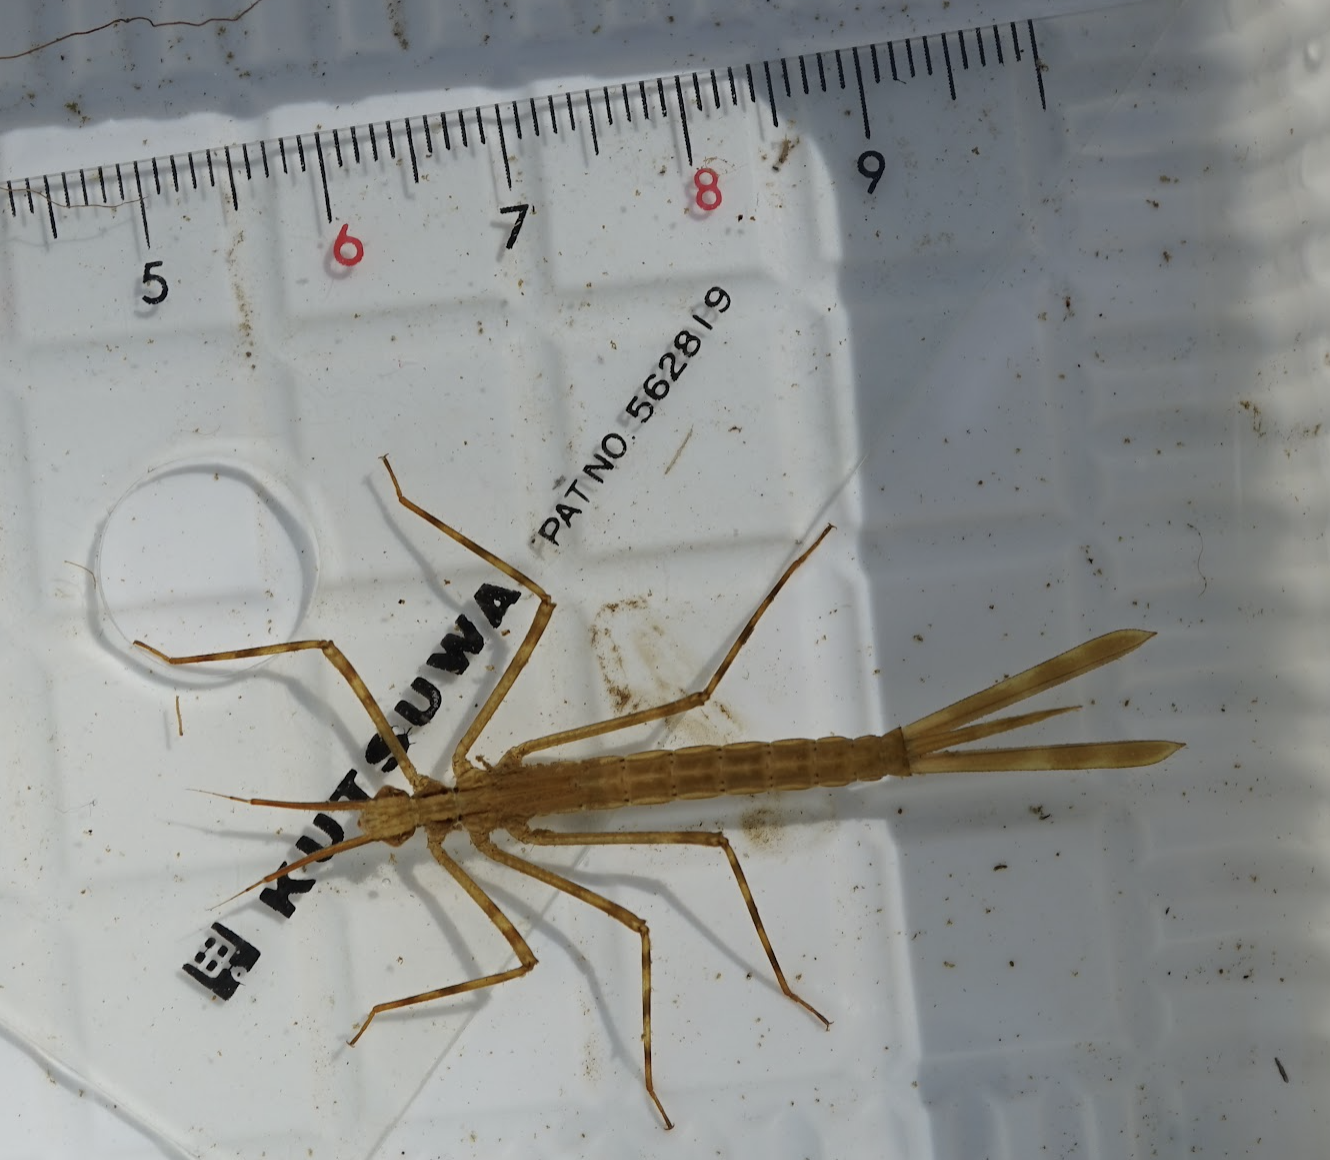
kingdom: Animalia
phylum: Arthropoda
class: Insecta
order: Odonata
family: Calopterygidae
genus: Calopteryx
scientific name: Calopteryx cornelia
